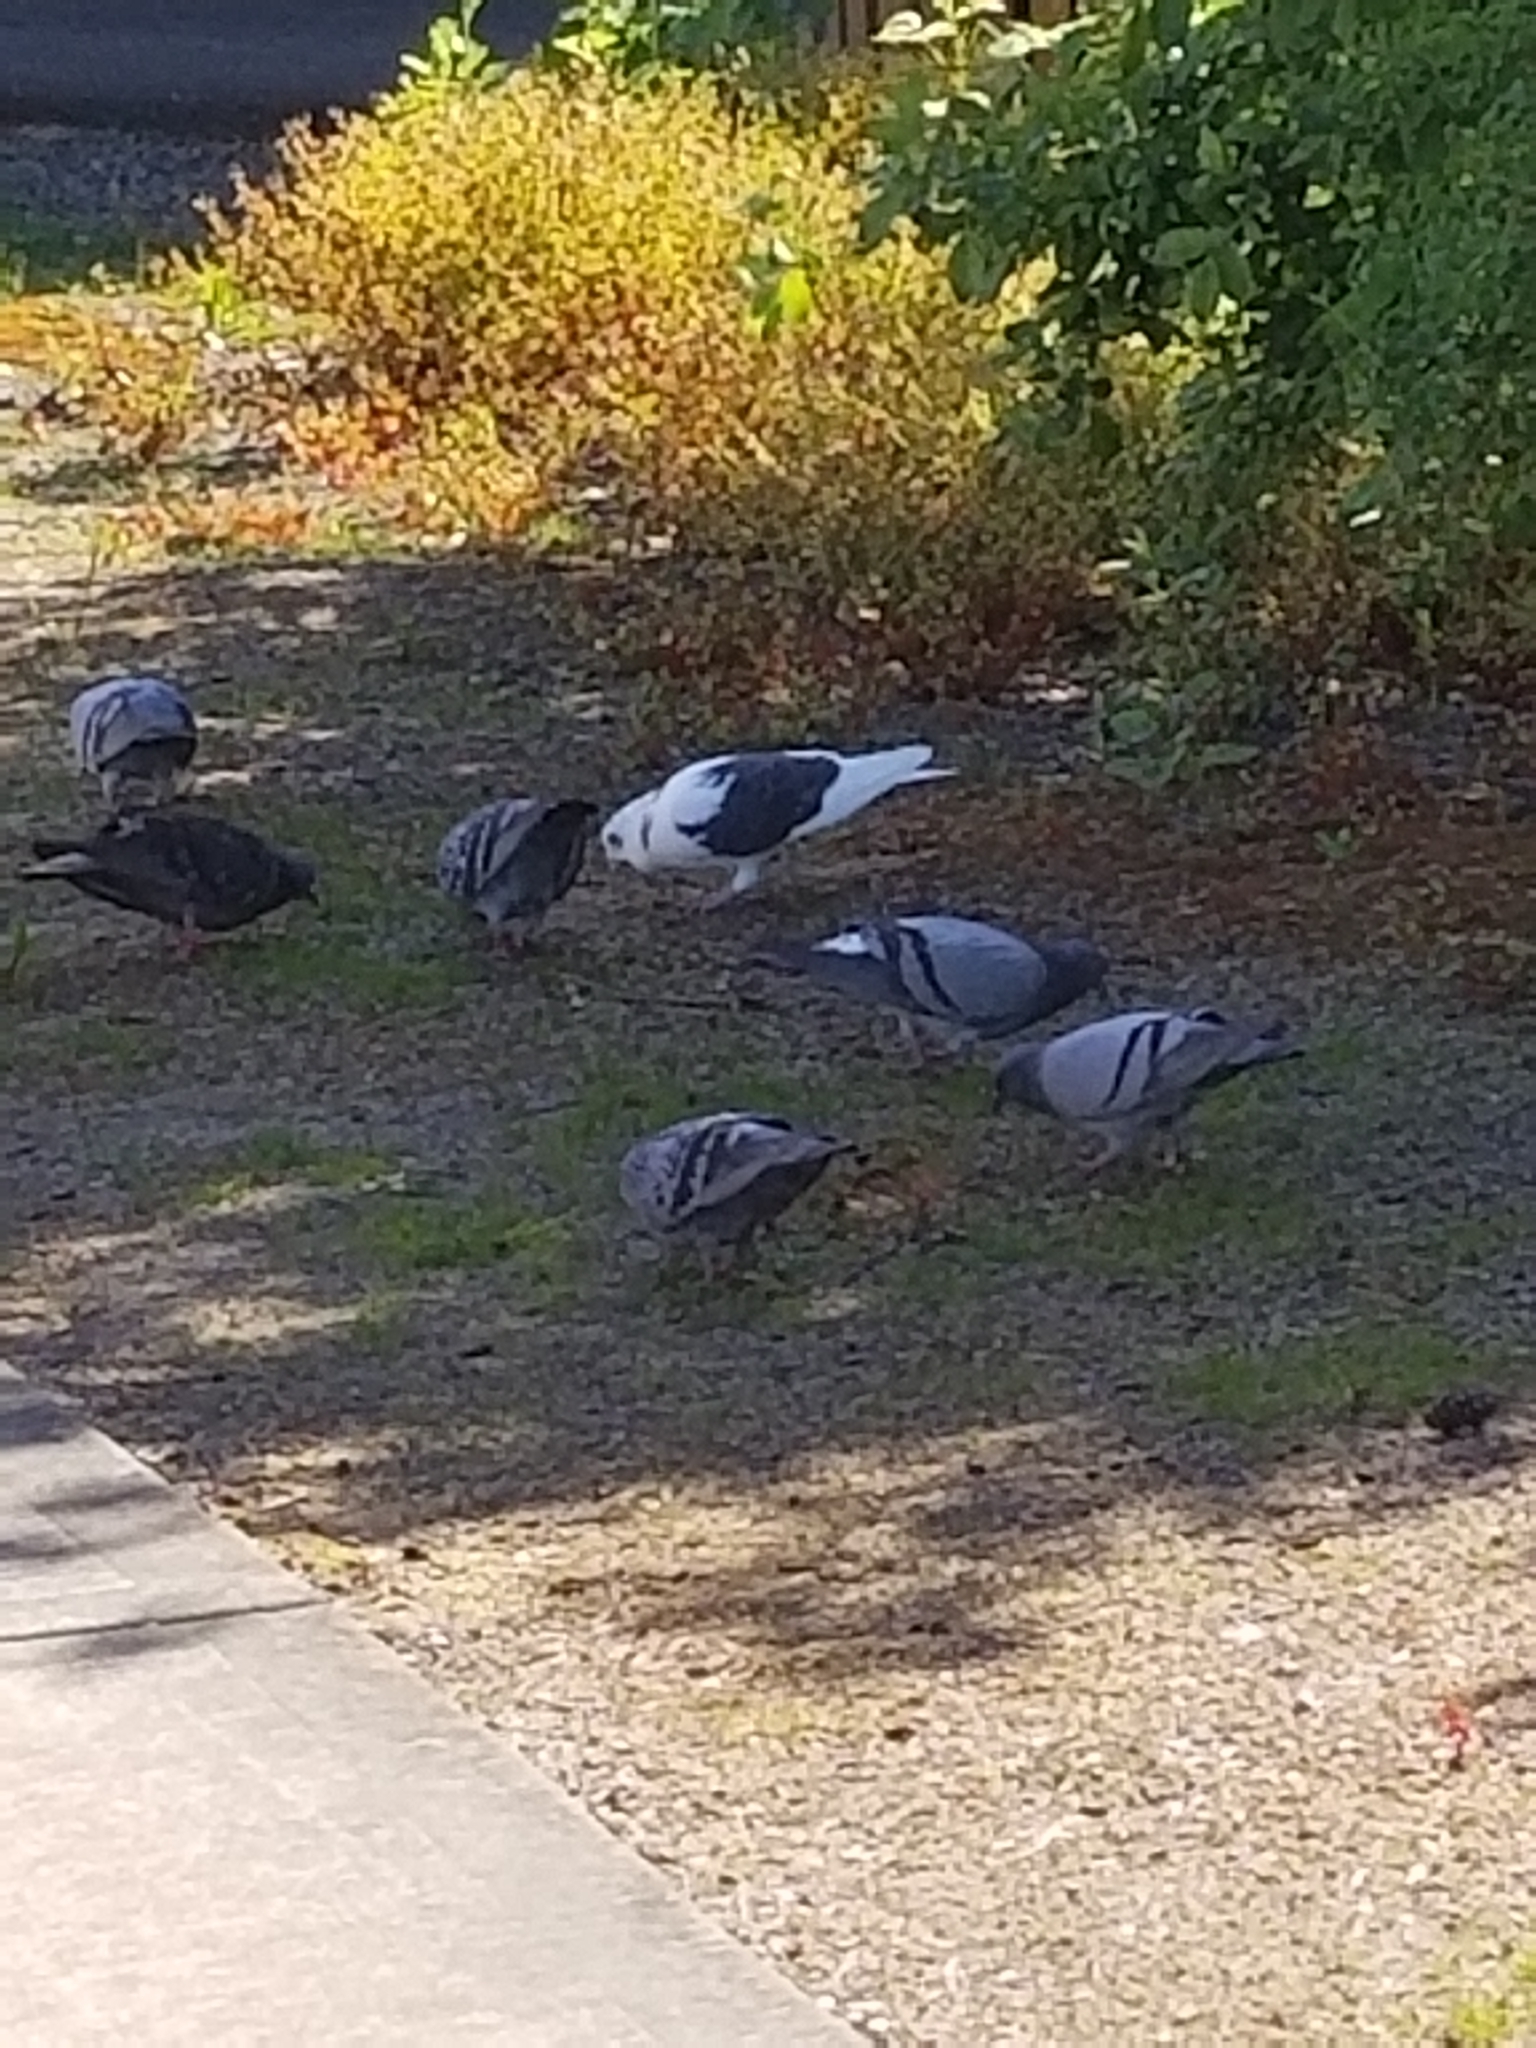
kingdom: Animalia
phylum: Chordata
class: Aves
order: Columbiformes
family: Columbidae
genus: Columba
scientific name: Columba livia
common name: Rock pigeon
